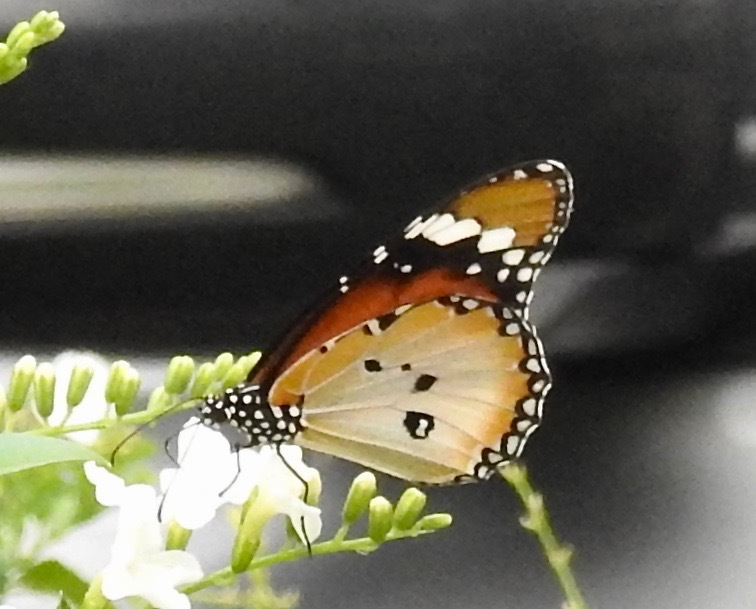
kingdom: Animalia
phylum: Arthropoda
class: Insecta
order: Lepidoptera
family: Nymphalidae
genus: Danaus
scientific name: Danaus chrysippus
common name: Plain tiger
